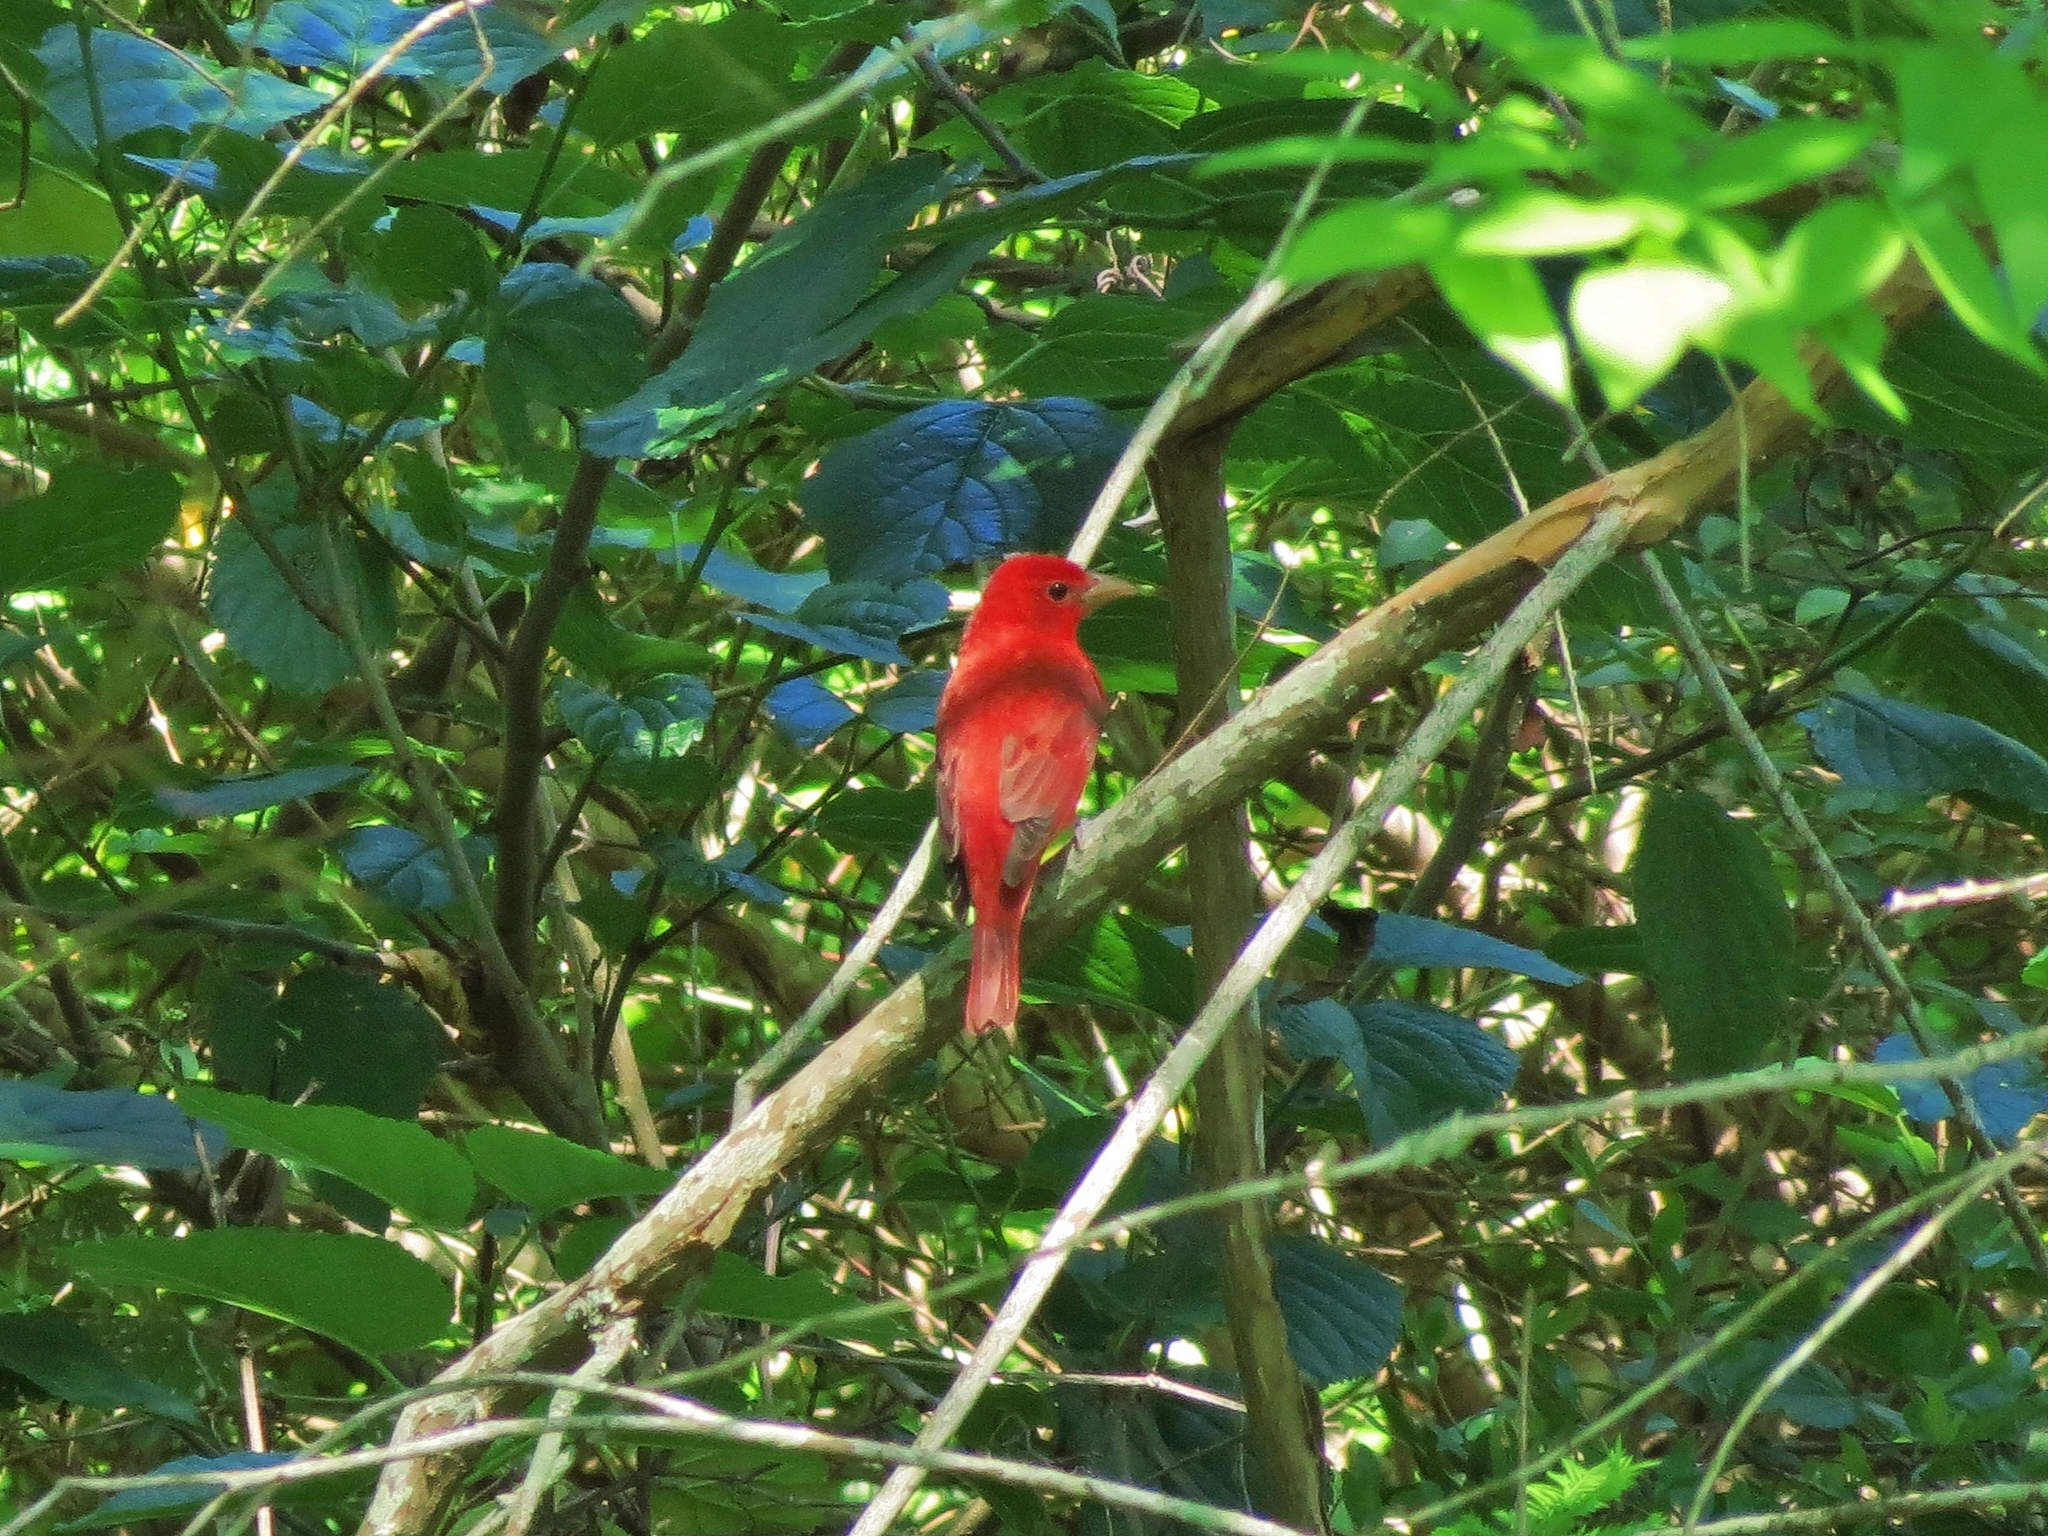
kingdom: Animalia
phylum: Chordata
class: Aves
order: Passeriformes
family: Cardinalidae
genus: Piranga
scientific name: Piranga rubra
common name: Summer tanager
